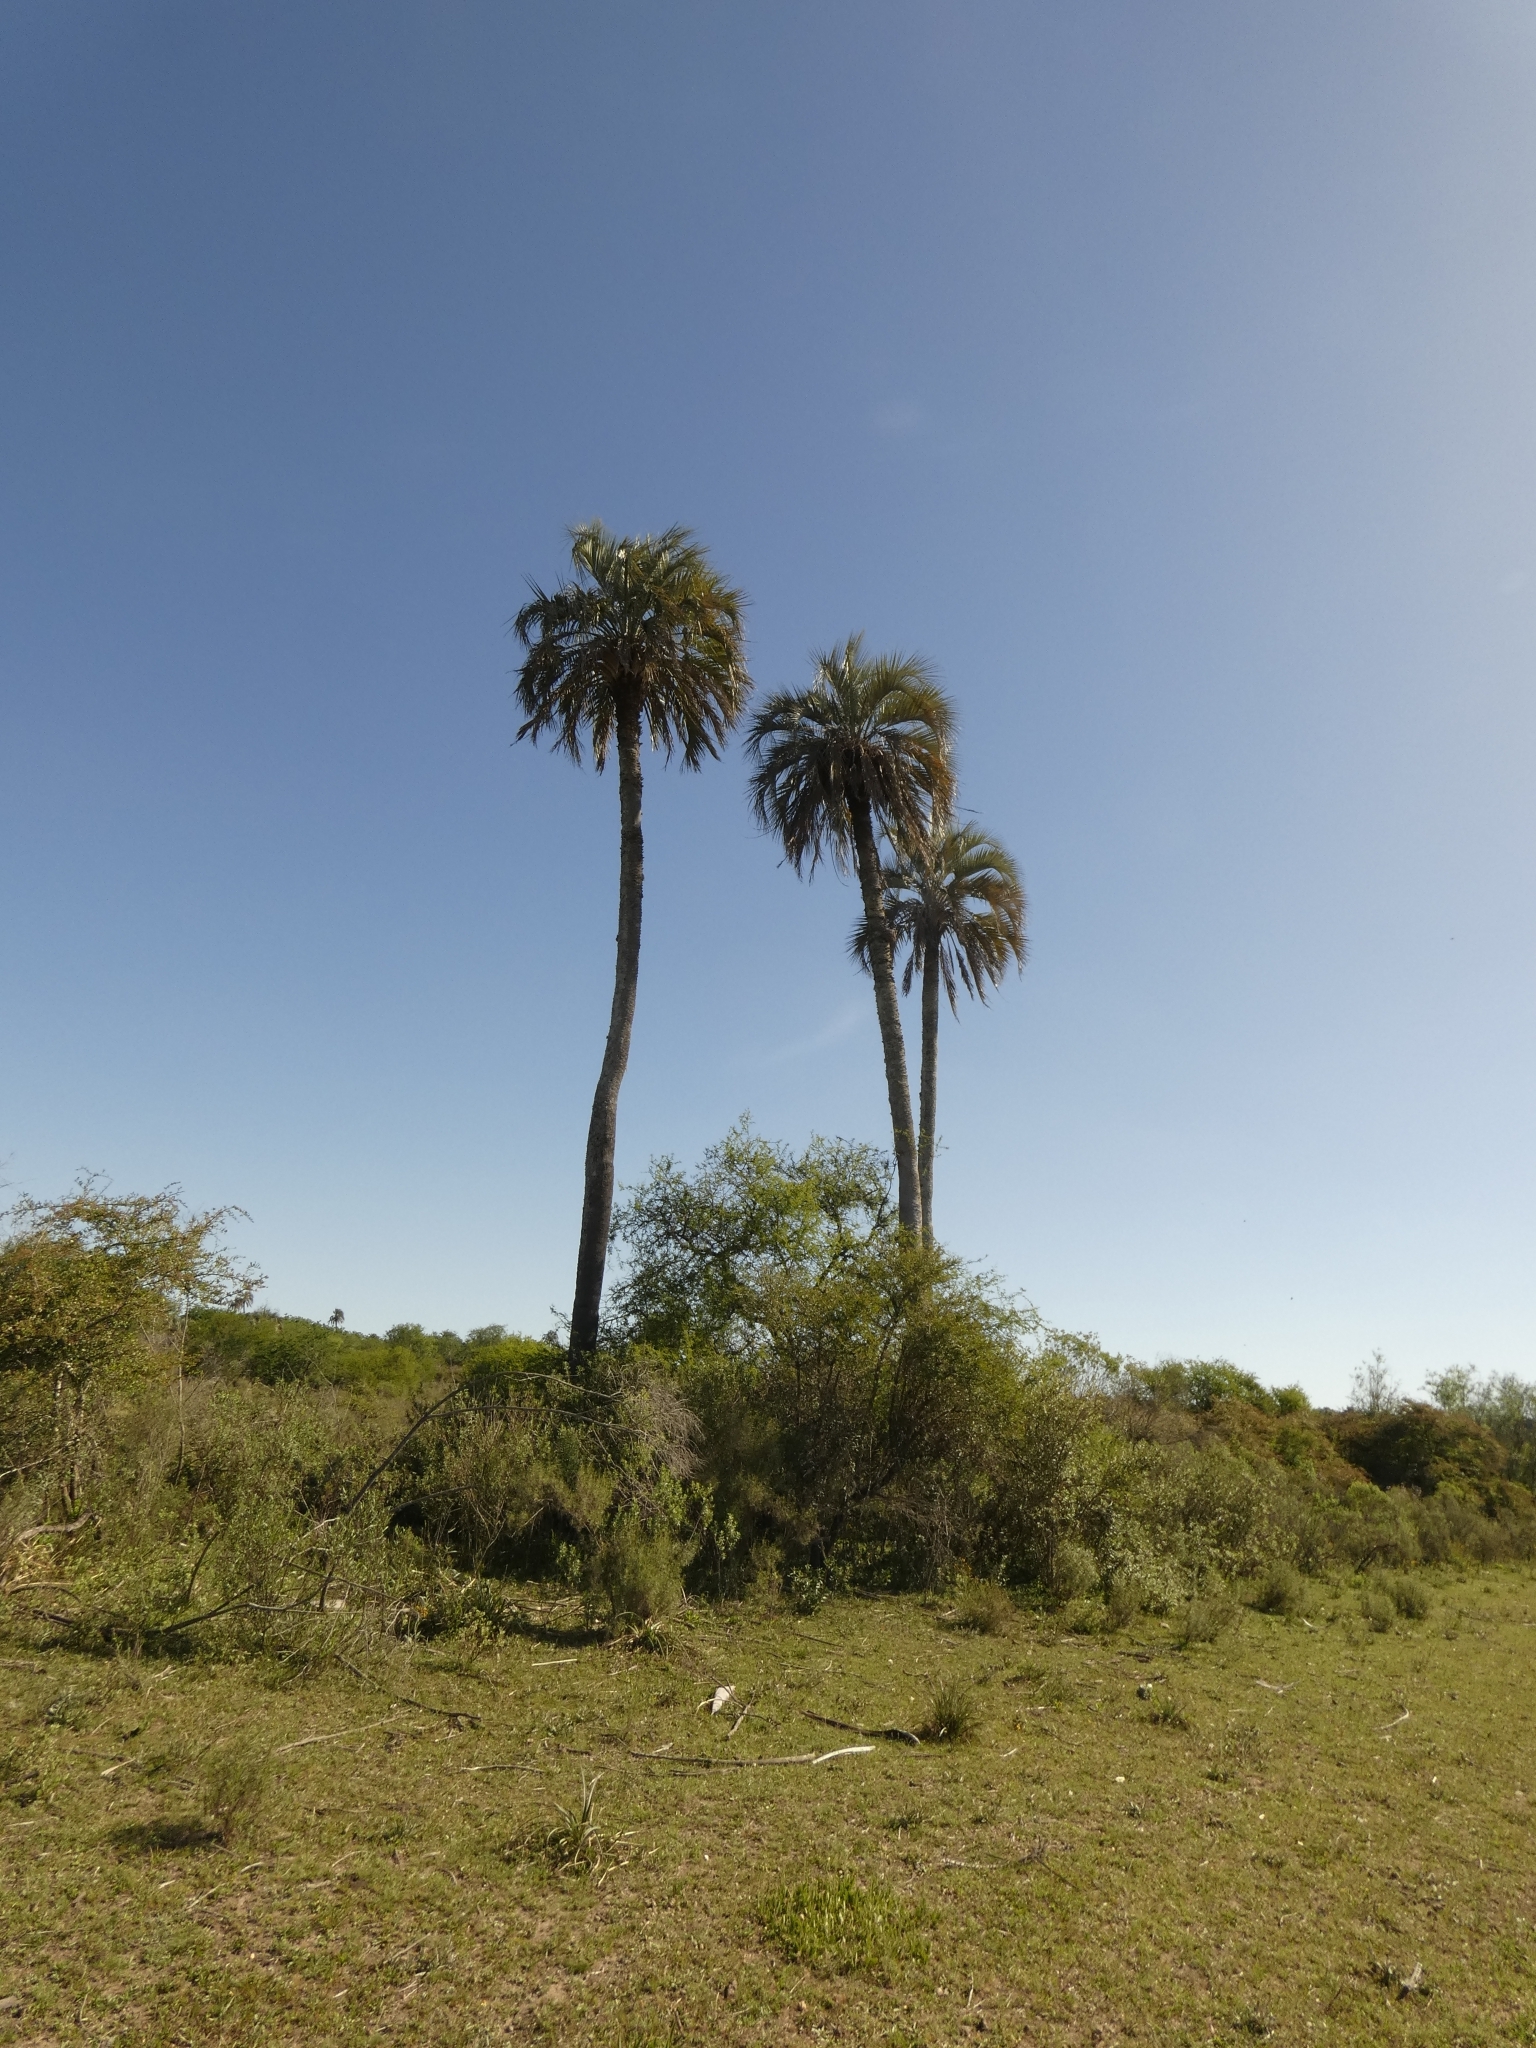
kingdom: Plantae
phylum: Tracheophyta
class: Liliopsida
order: Arecales
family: Arecaceae
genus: Butia
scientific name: Butia yatay
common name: Yatay palm
